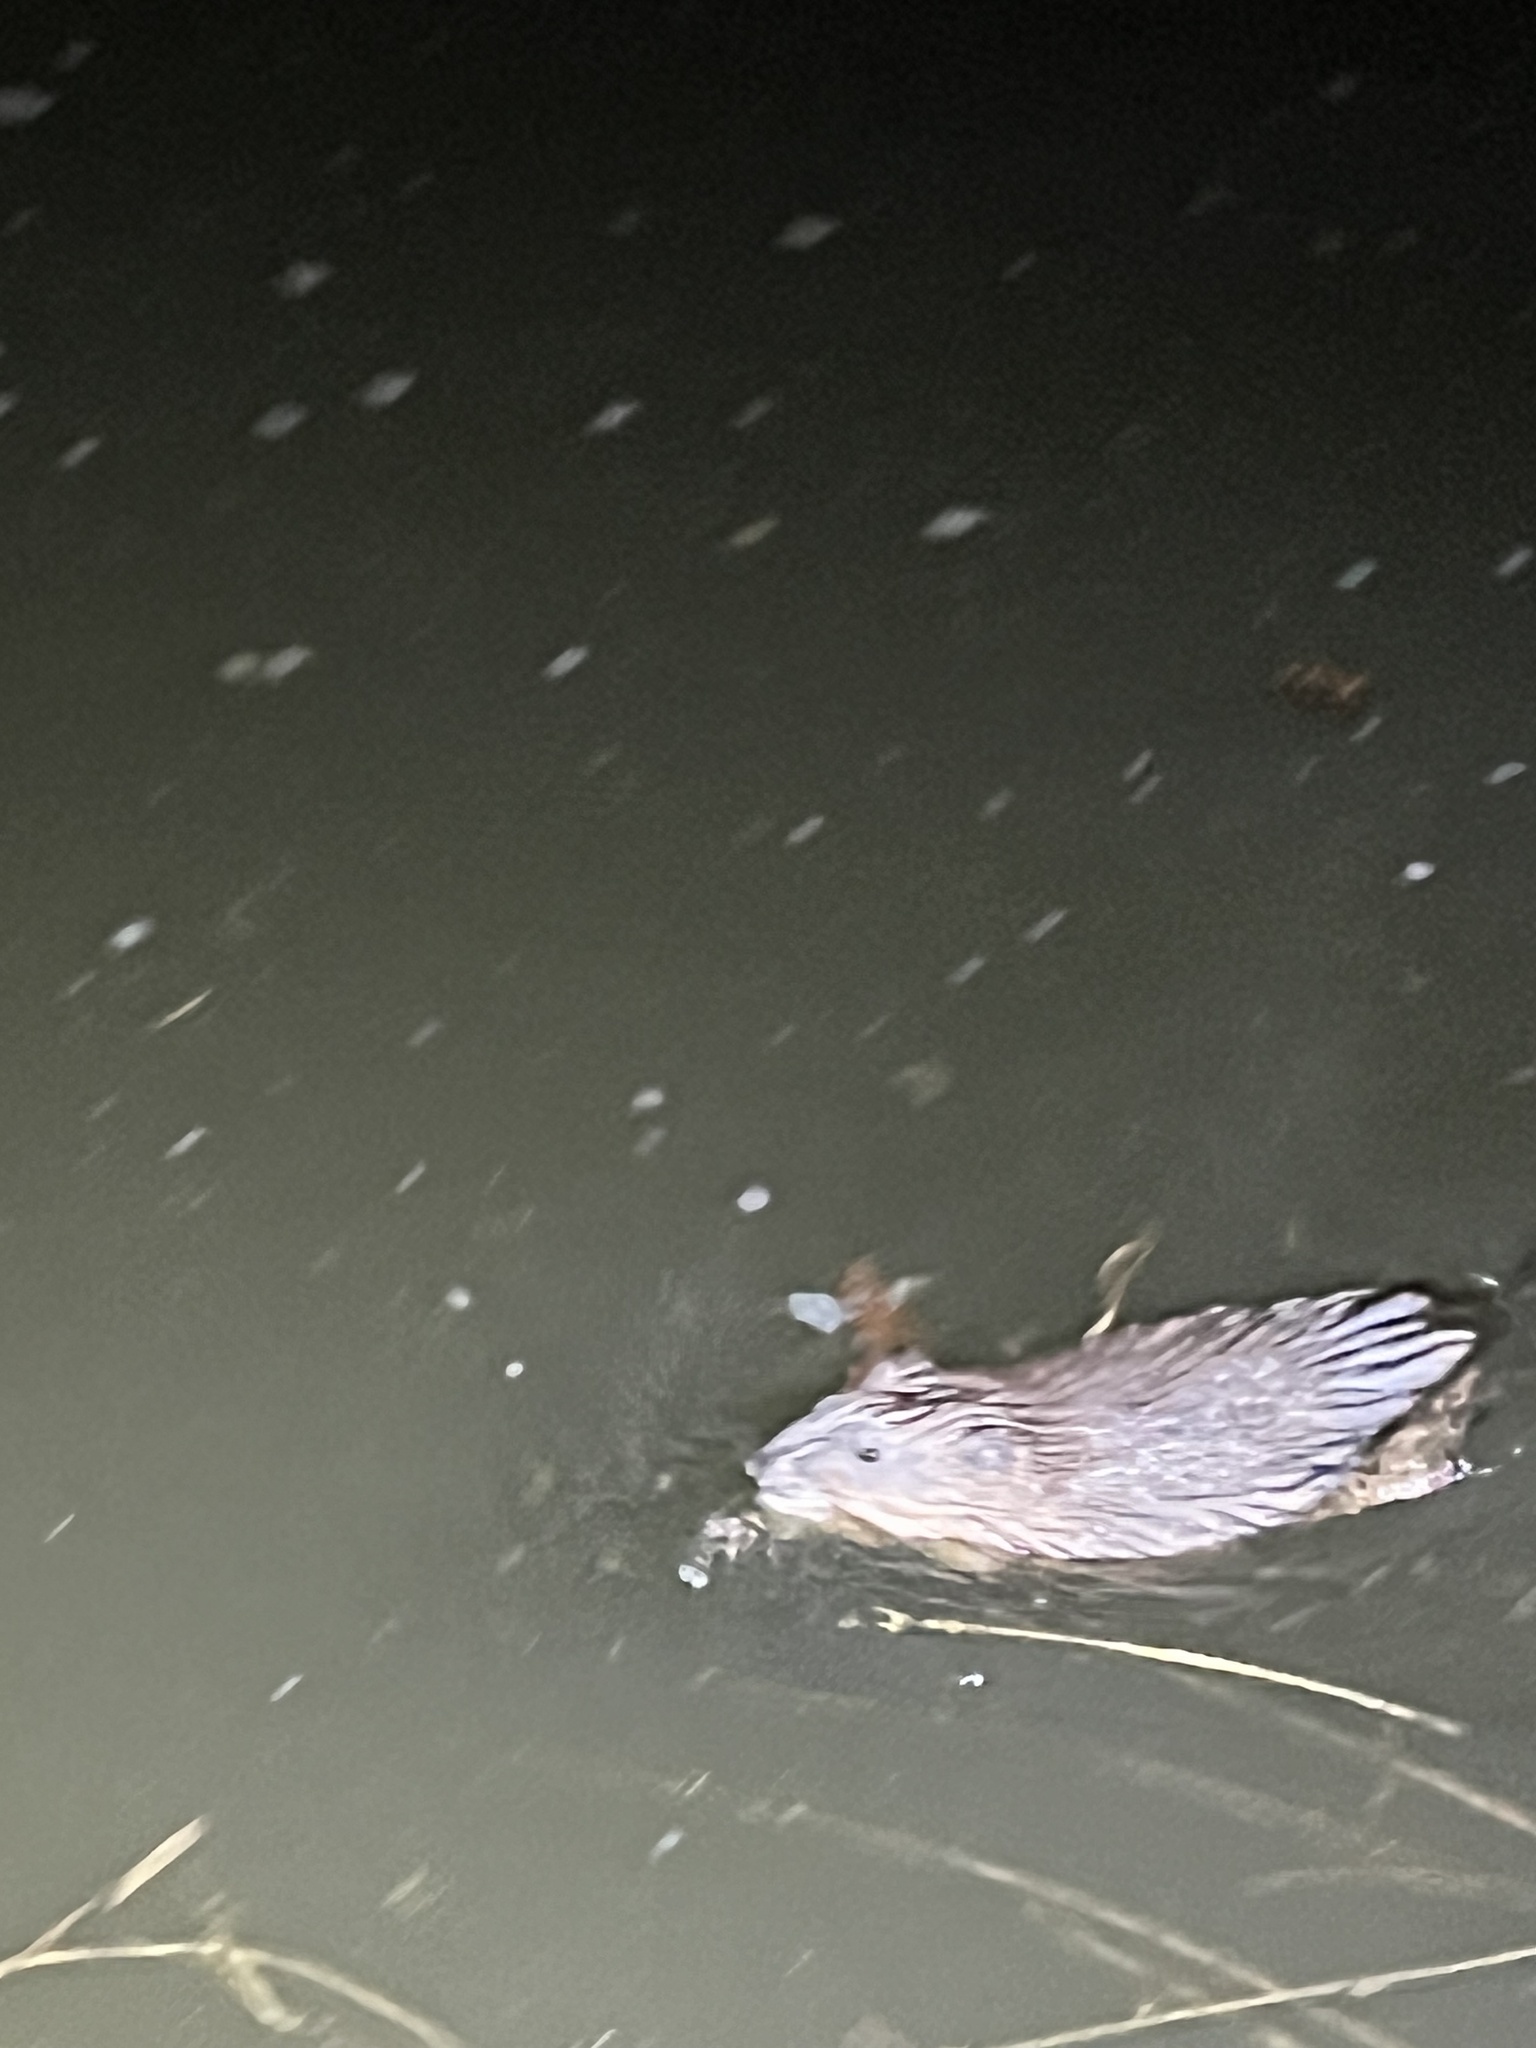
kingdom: Animalia
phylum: Chordata
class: Mammalia
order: Rodentia
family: Cricetidae
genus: Ondatra
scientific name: Ondatra zibethicus
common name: Muskrat
